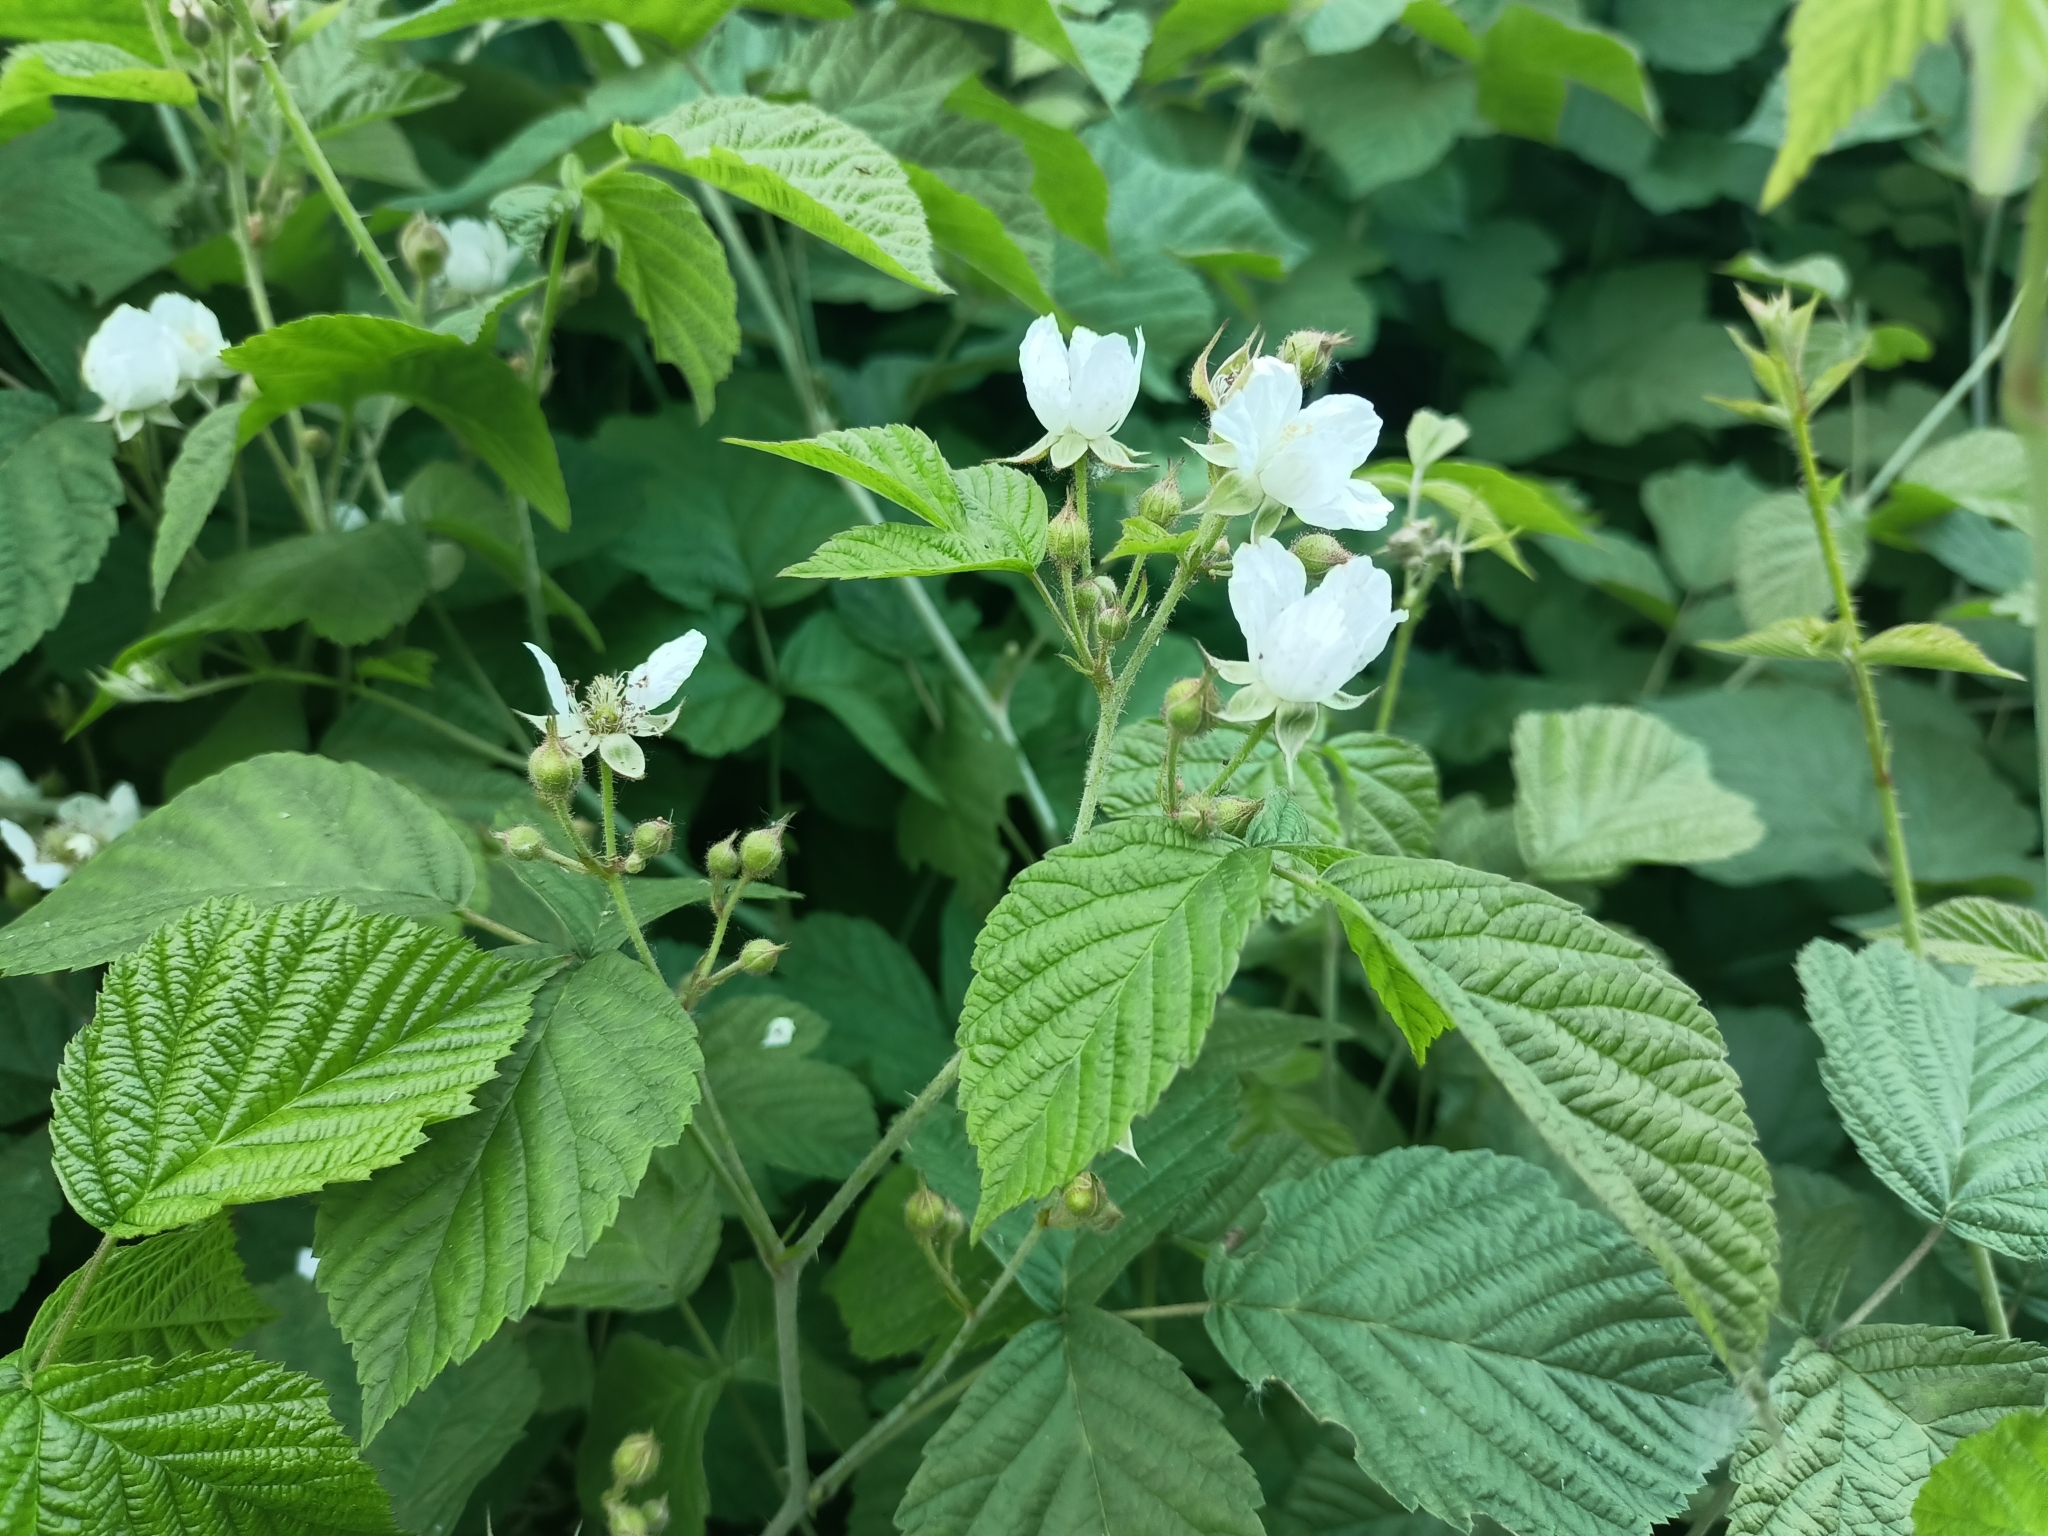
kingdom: Plantae
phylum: Tracheophyta
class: Magnoliopsida
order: Rosales
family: Rosaceae
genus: Rubus
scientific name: Rubus caesius
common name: Dewberry
